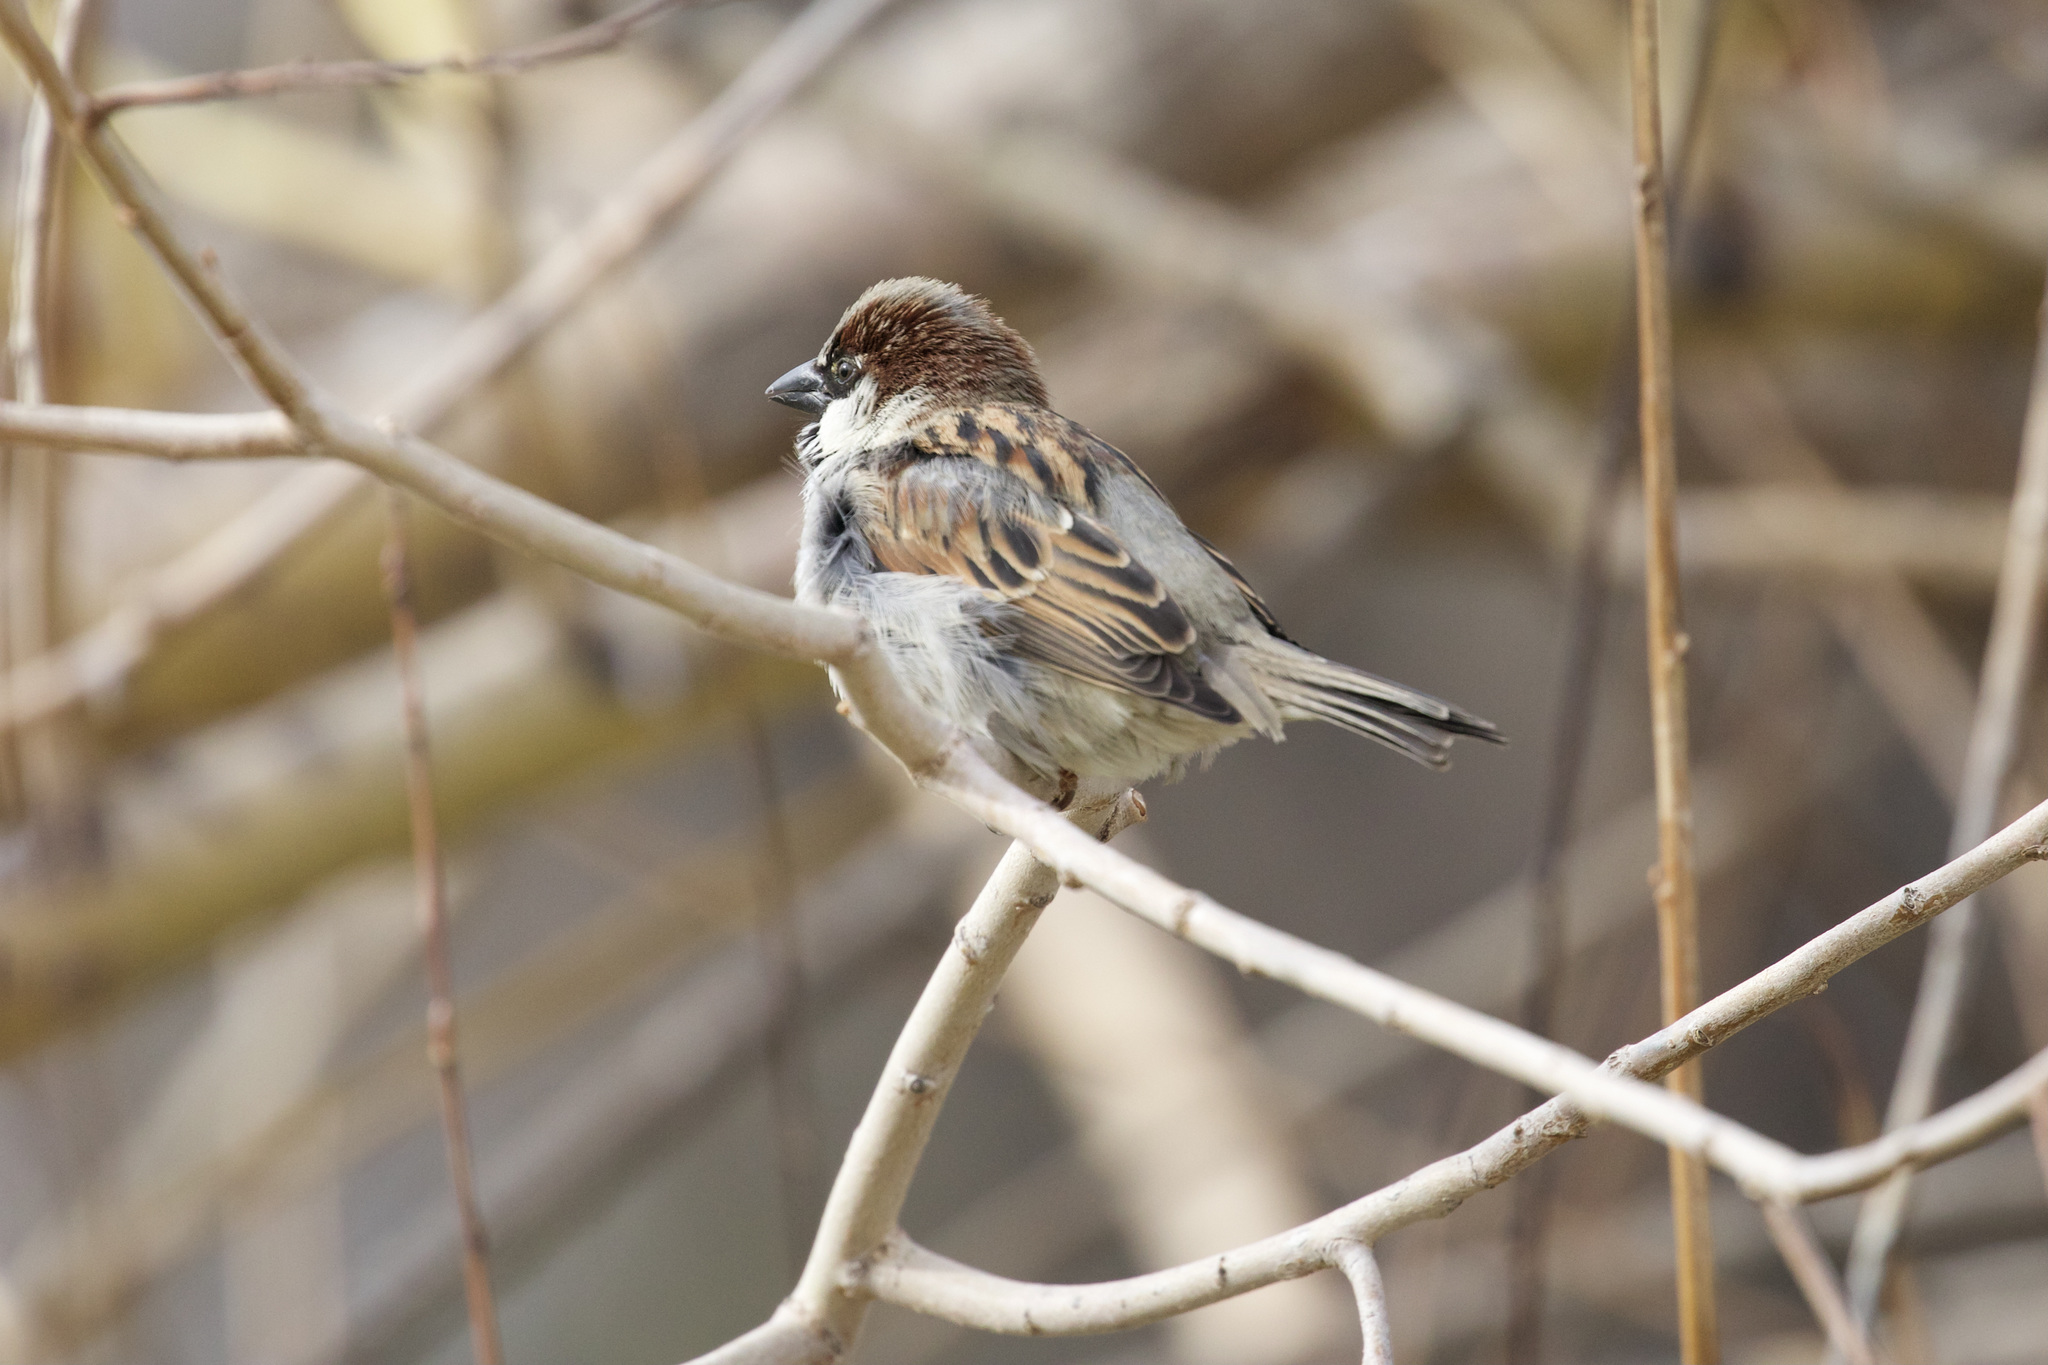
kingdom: Animalia
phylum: Chordata
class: Aves
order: Passeriformes
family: Passeridae
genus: Passer
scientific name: Passer domesticus
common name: House sparrow
